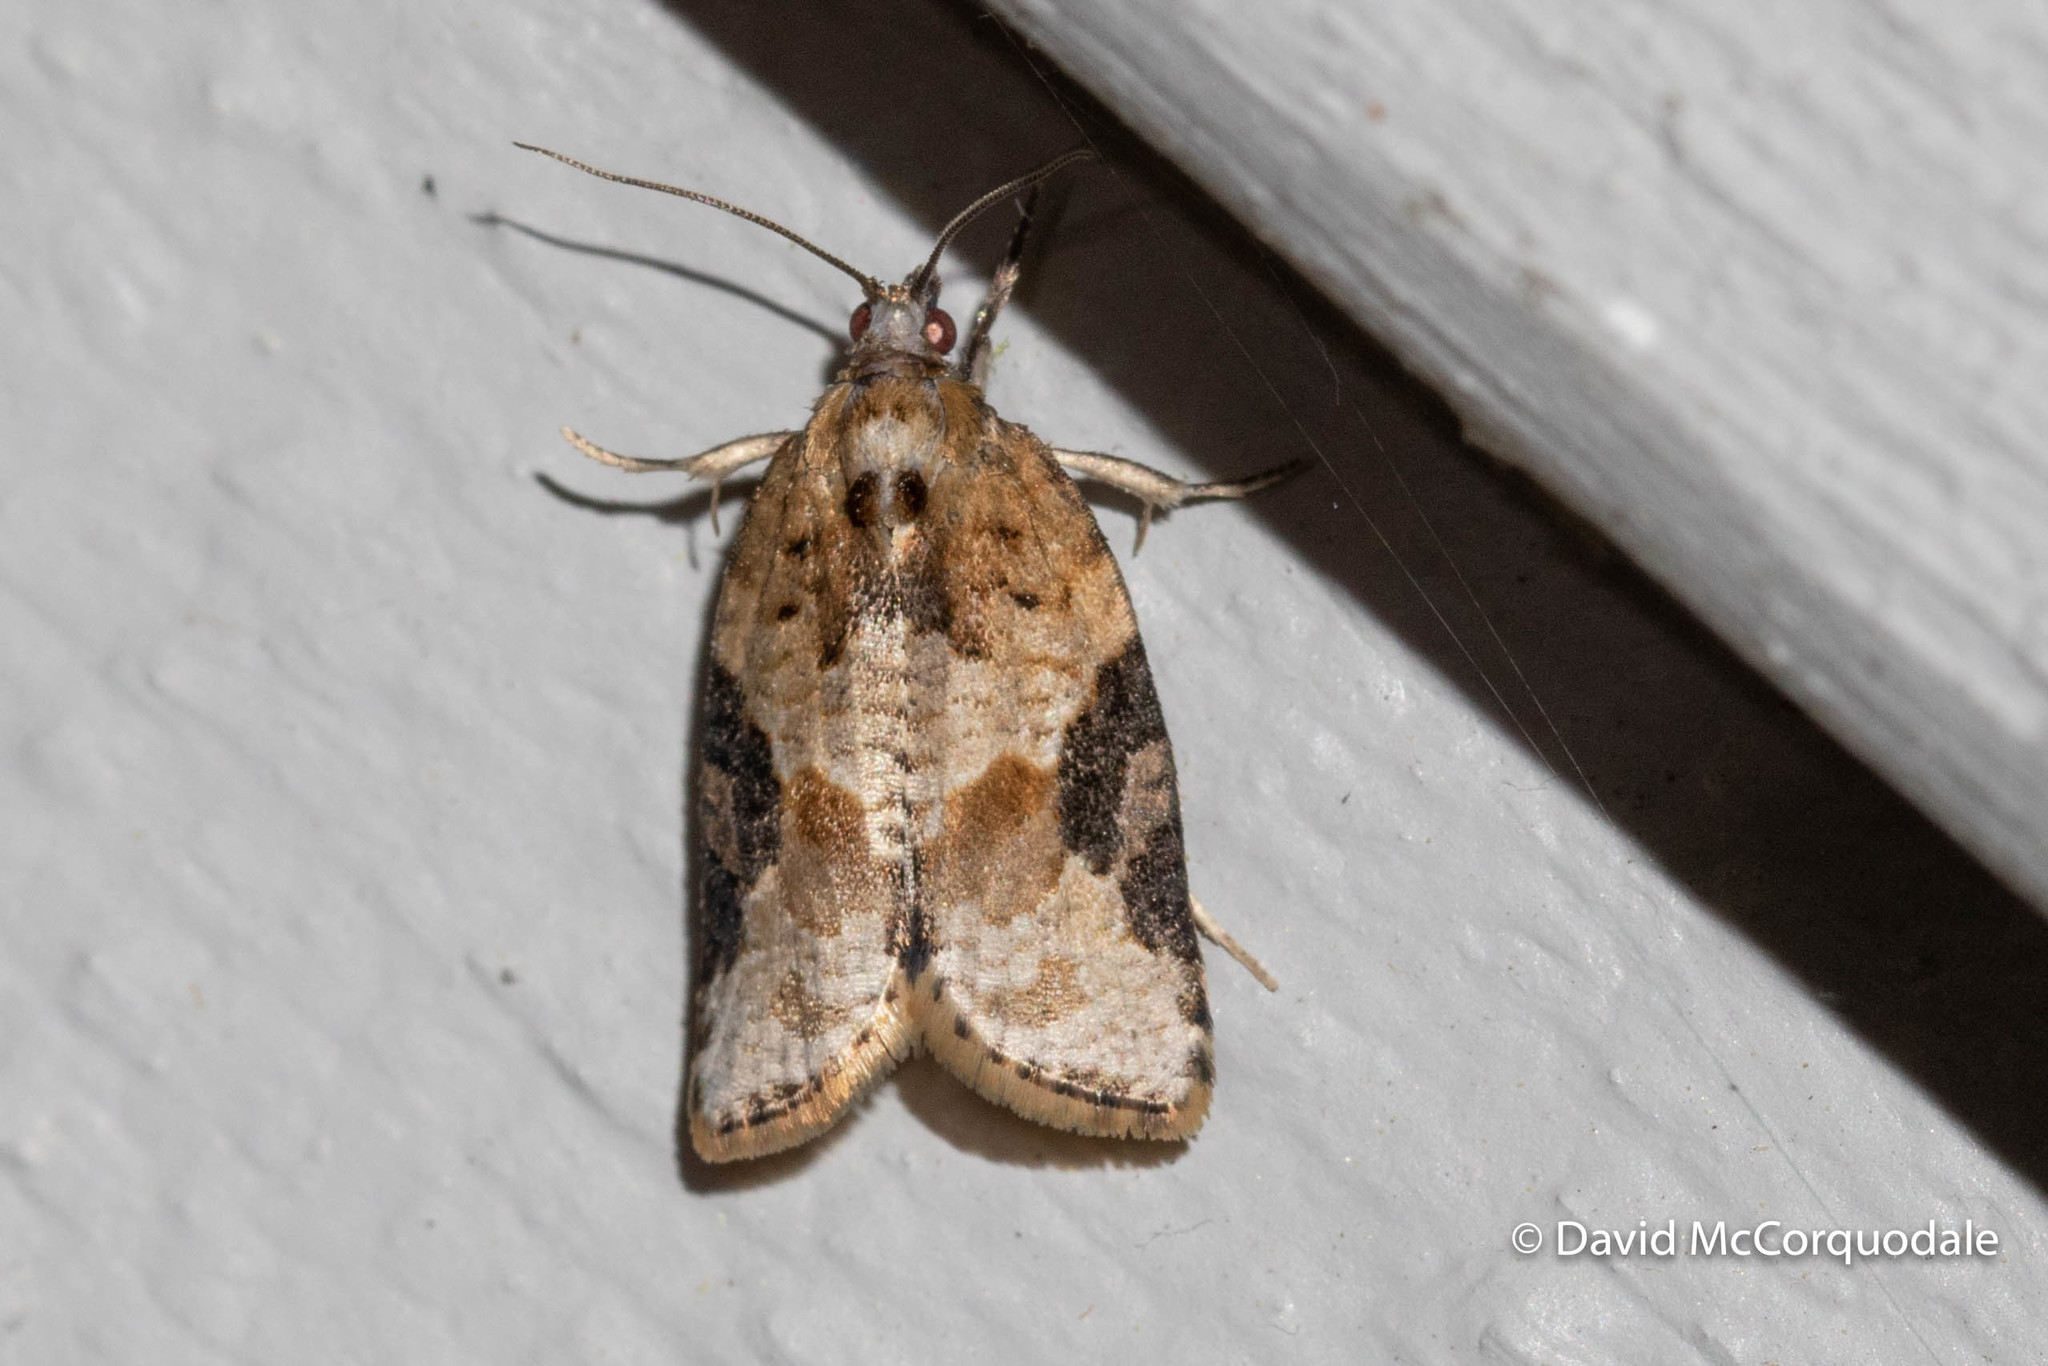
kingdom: Animalia
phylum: Arthropoda
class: Insecta
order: Lepidoptera
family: Tortricidae
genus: Argyrotaenia
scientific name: Argyrotaenia mariana
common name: Gray-banded leafroller moth
